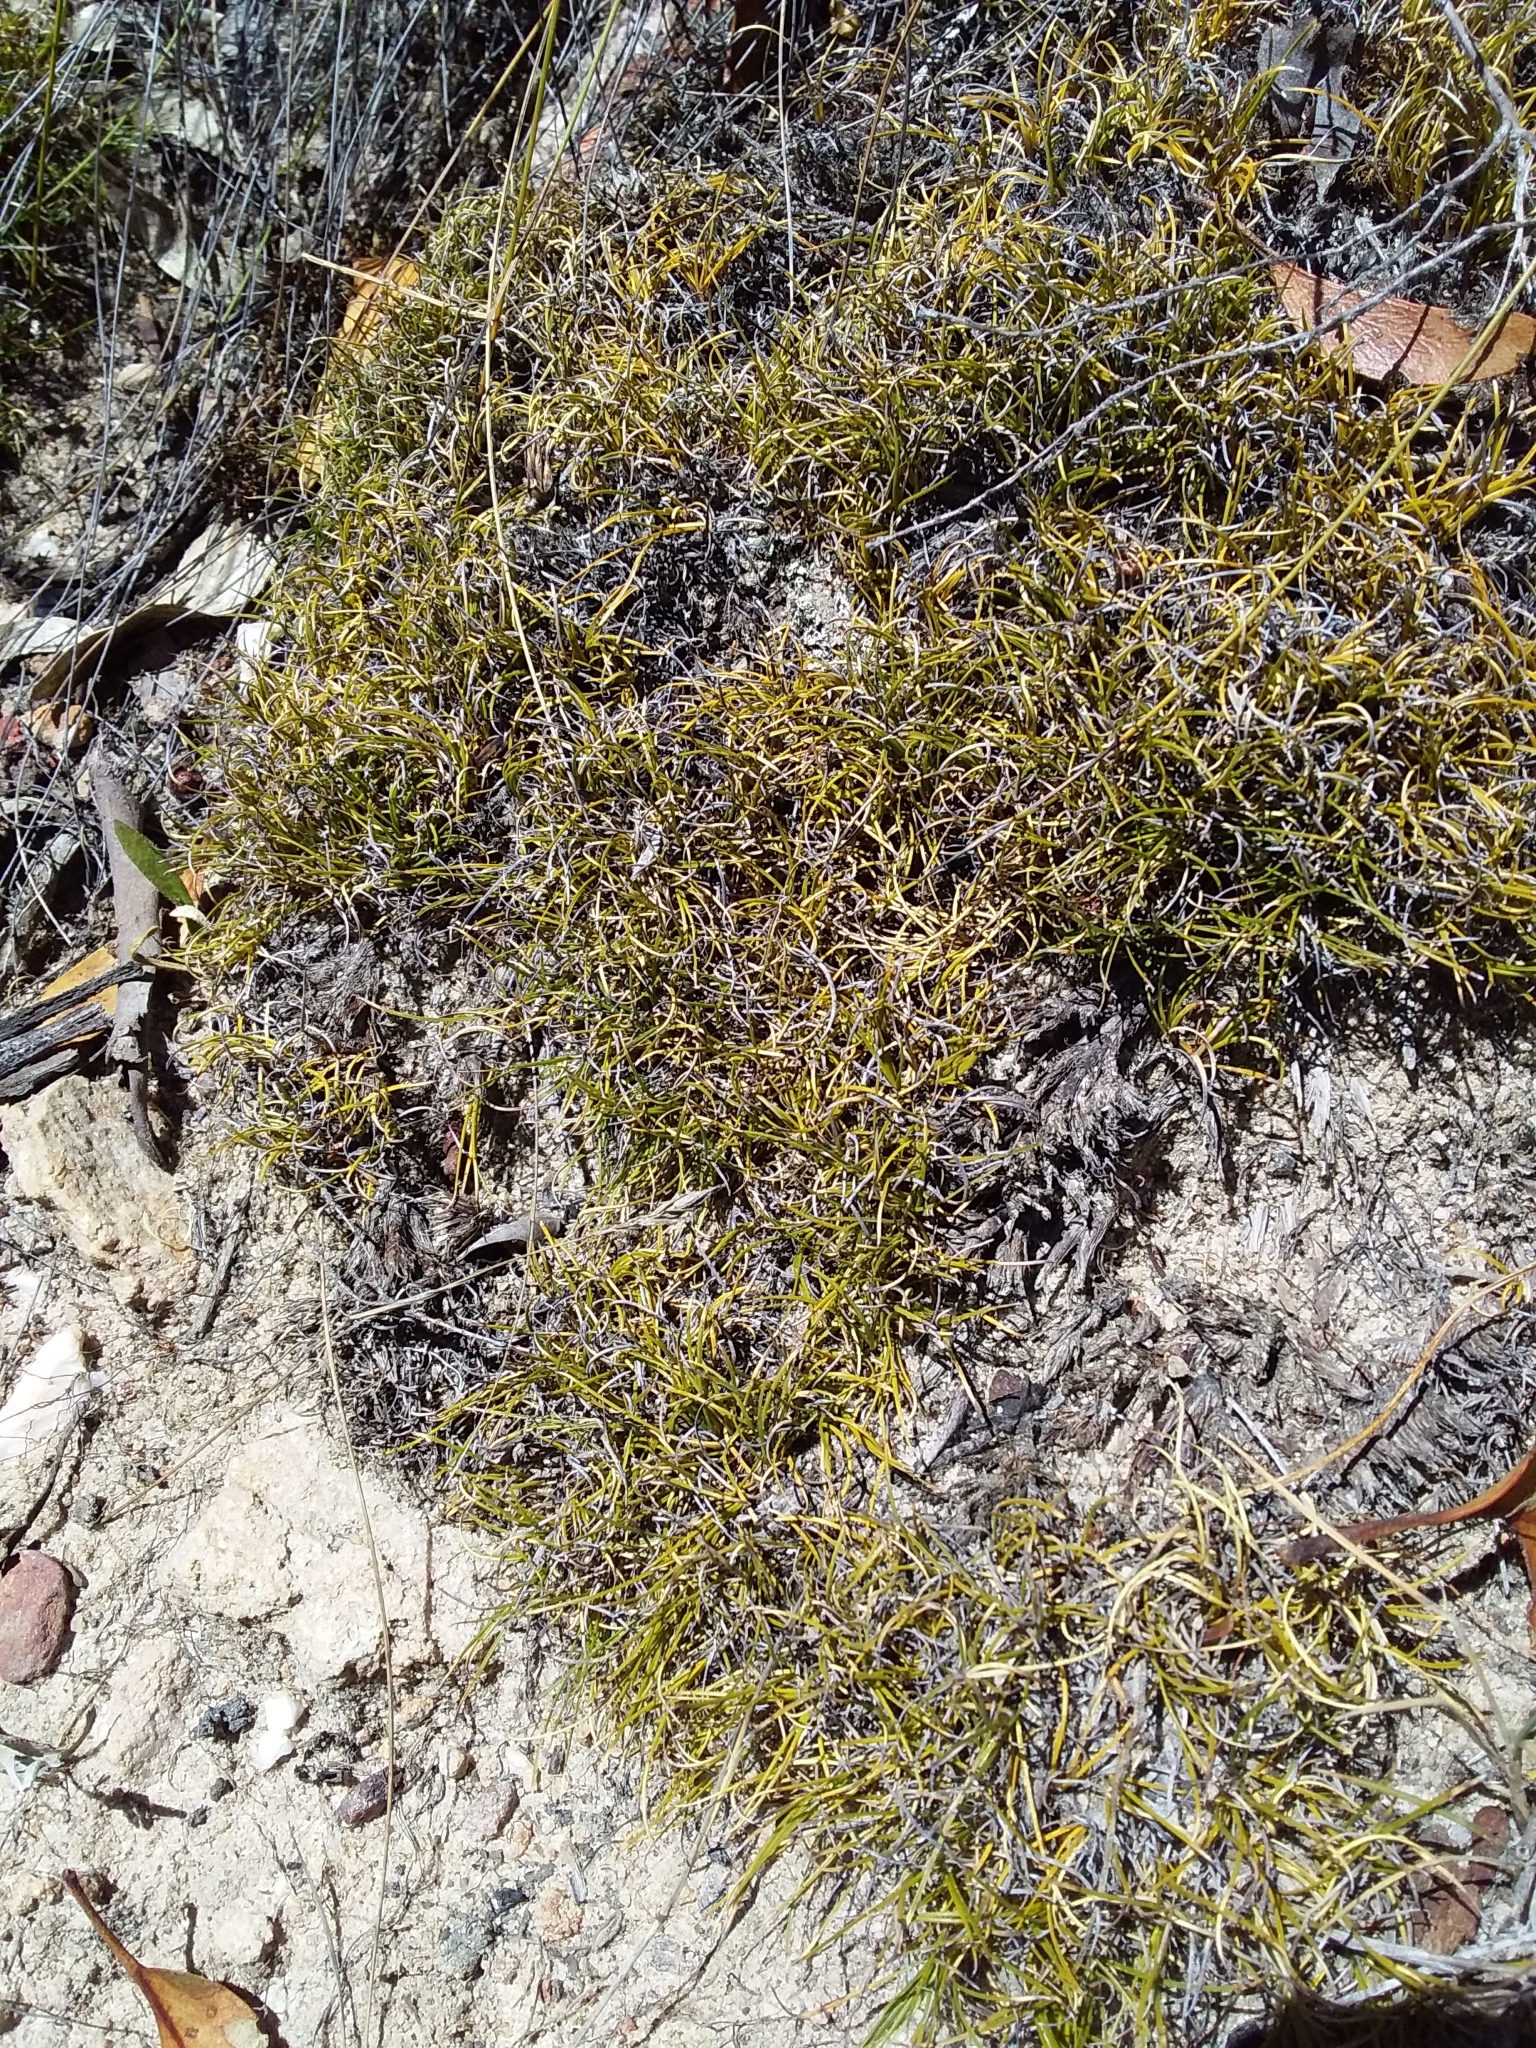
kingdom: Plantae
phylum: Tracheophyta
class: Liliopsida
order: Poales
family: Cyperaceae
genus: Schoenus
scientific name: Schoenus breviculmis
